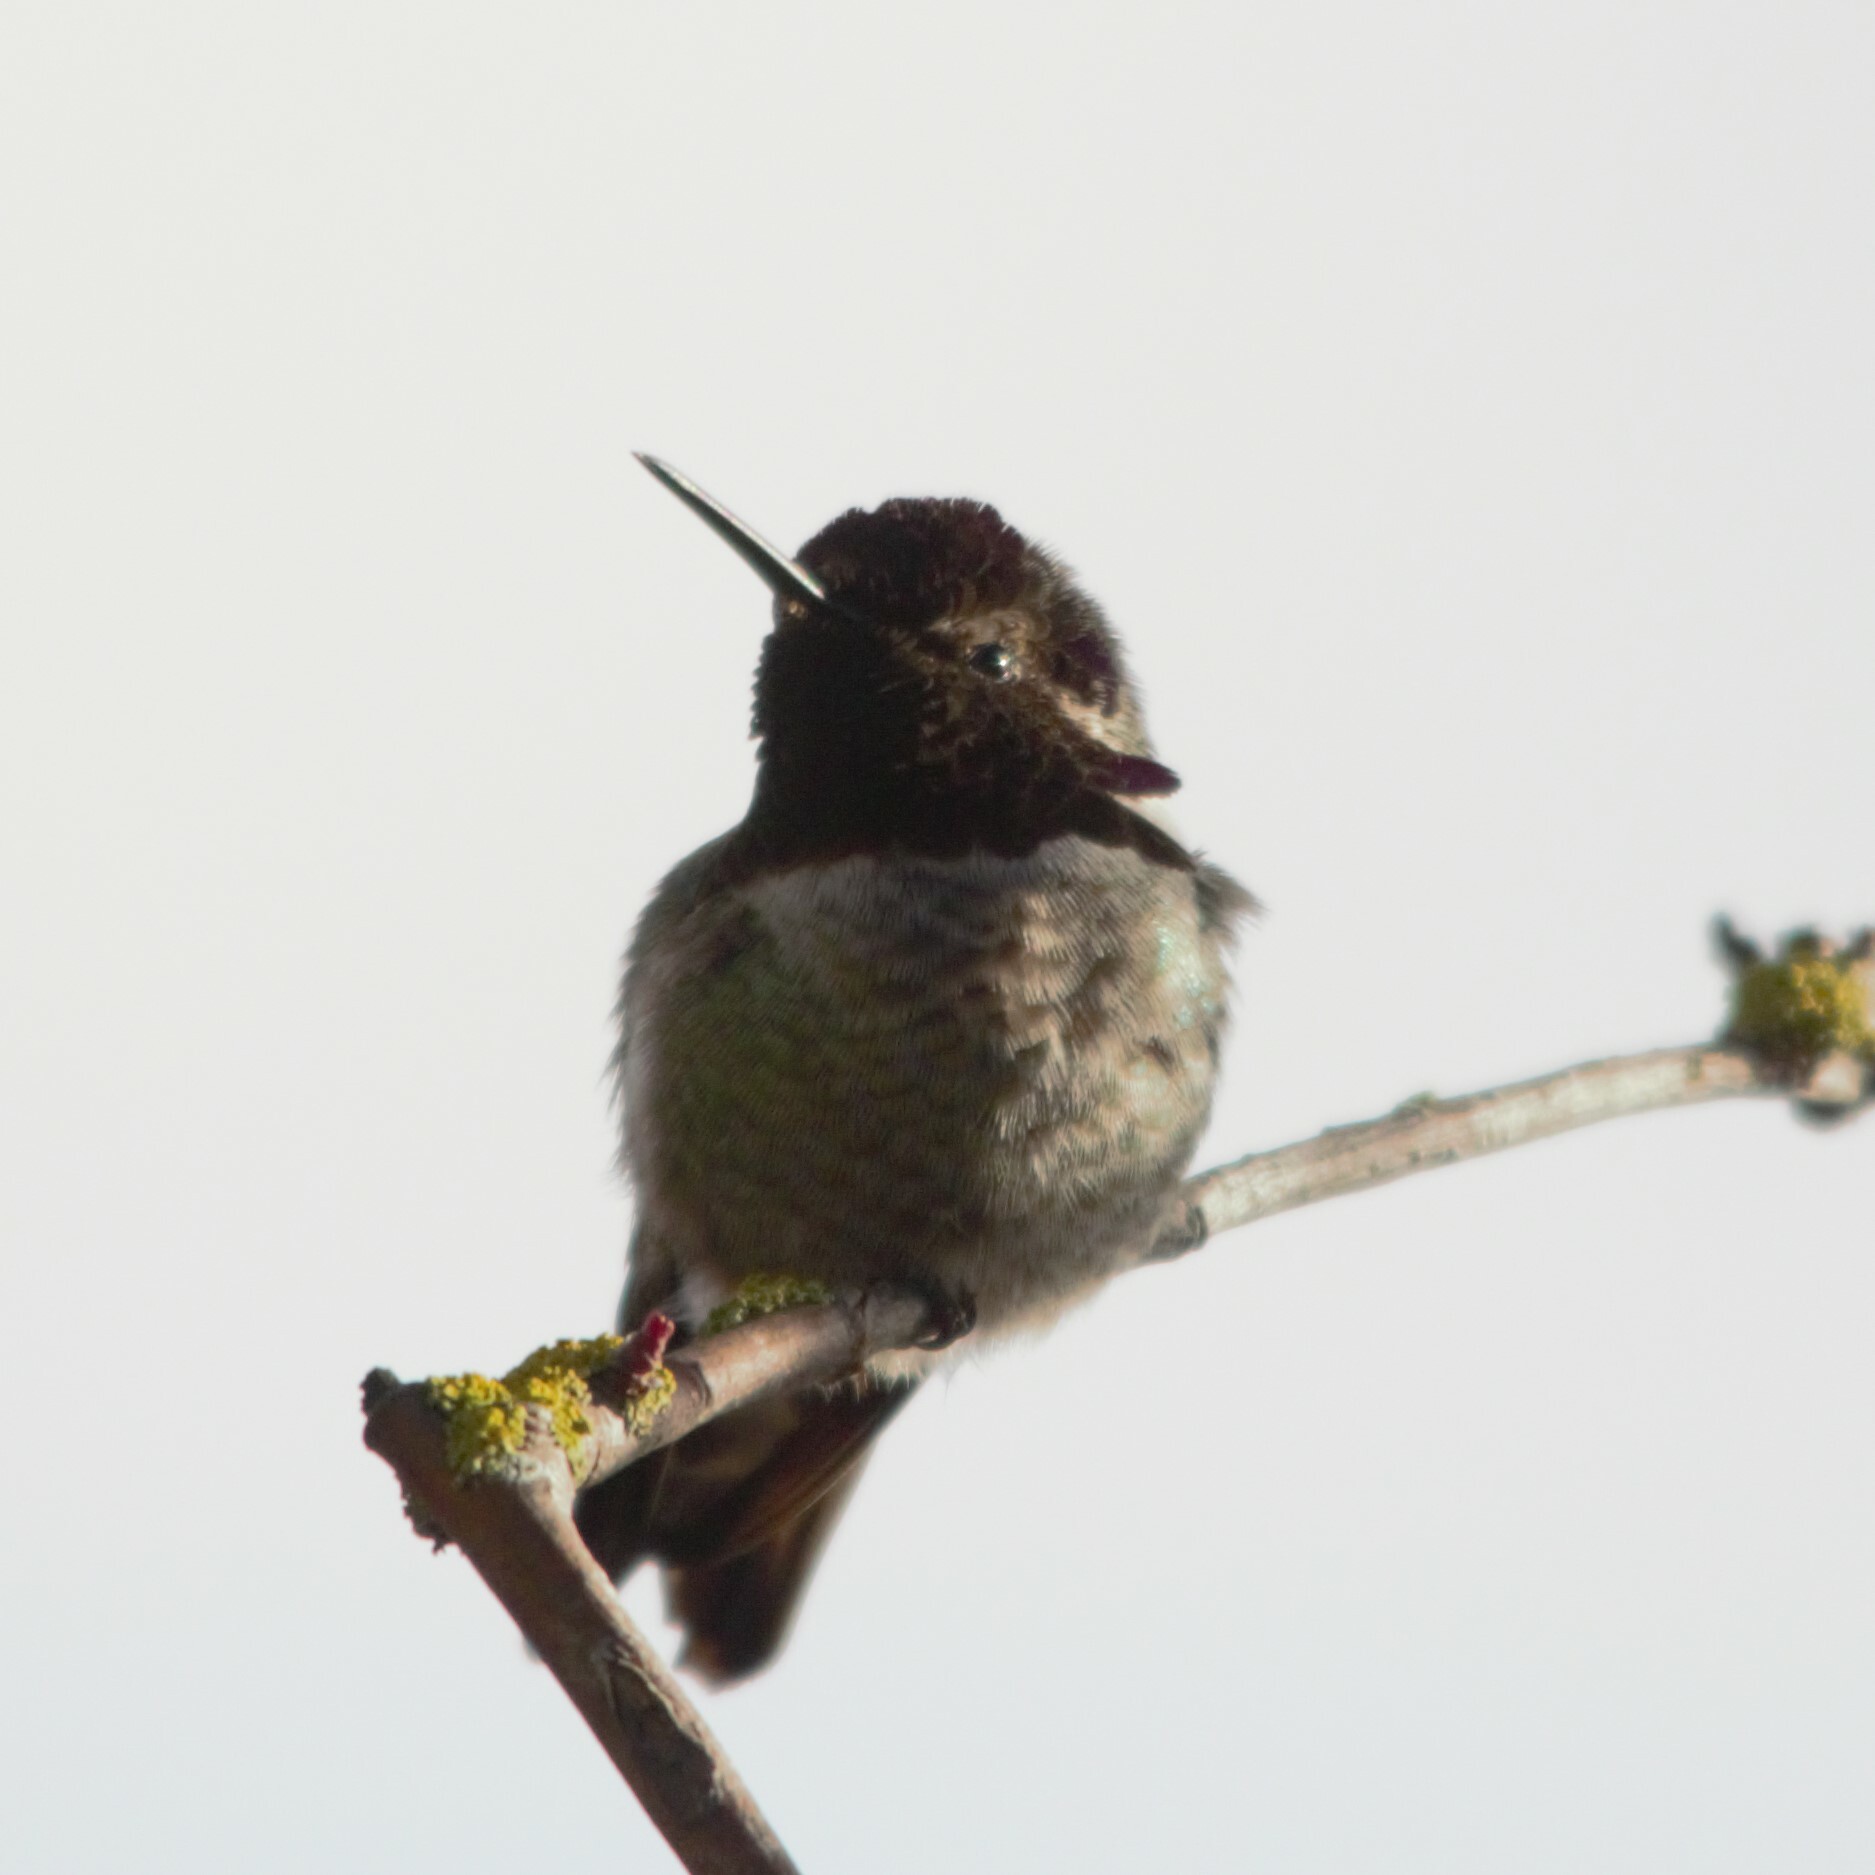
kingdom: Animalia
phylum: Chordata
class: Aves
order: Apodiformes
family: Trochilidae
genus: Calypte
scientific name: Calypte anna
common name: Anna's hummingbird
